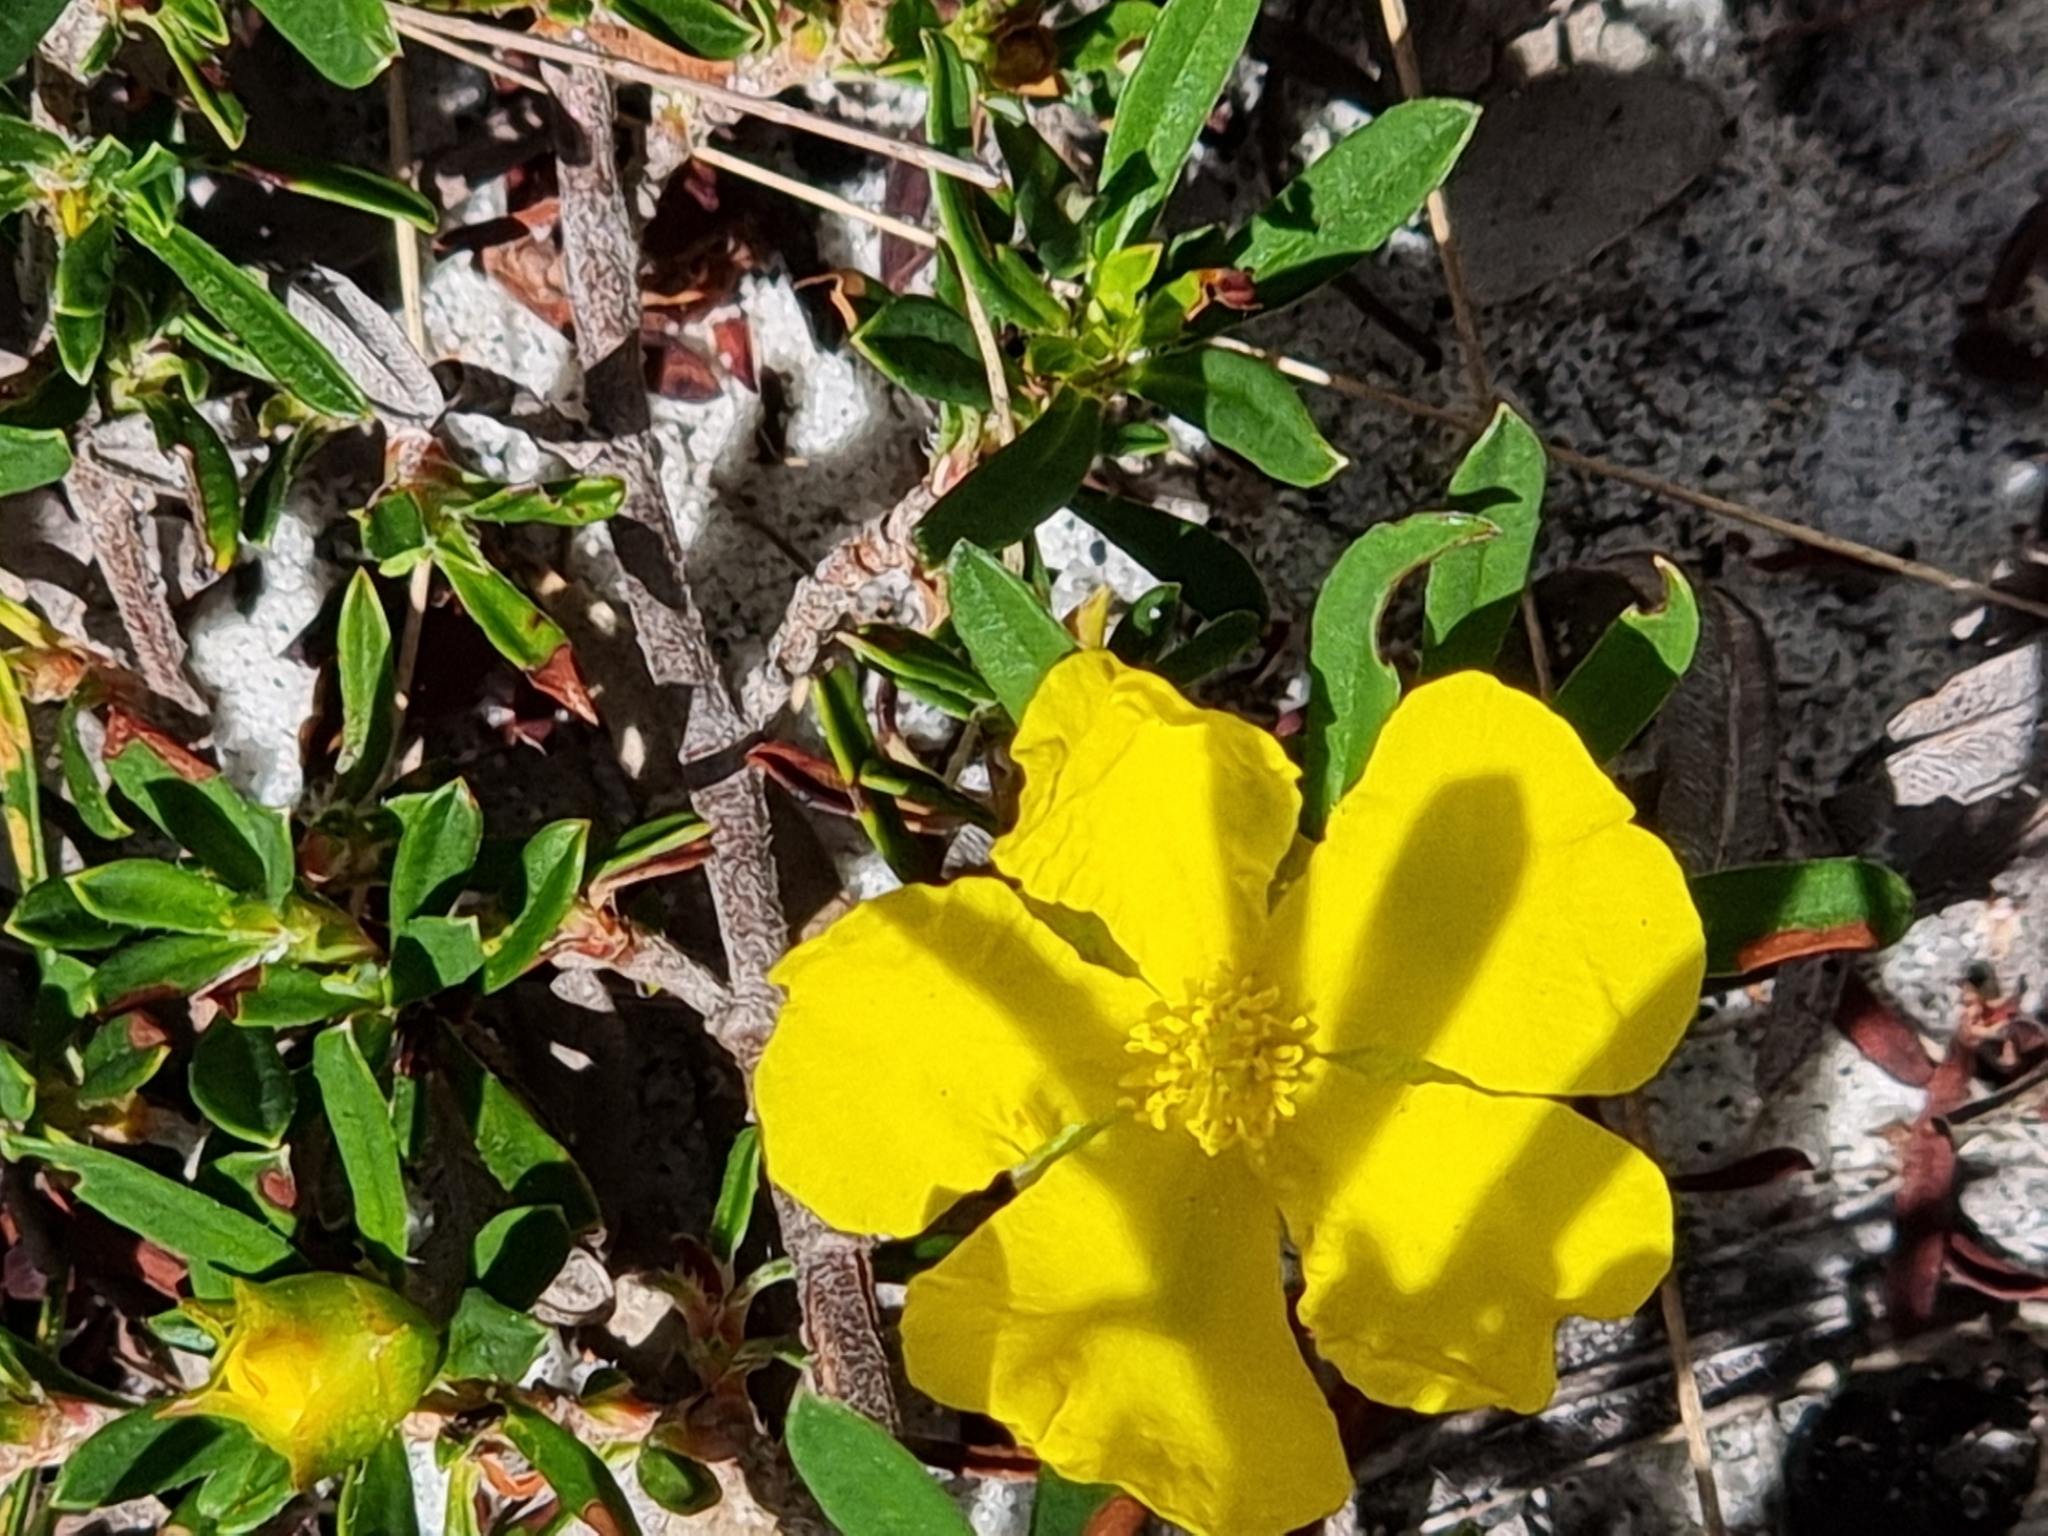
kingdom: Plantae
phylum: Tracheophyta
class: Magnoliopsida
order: Dilleniales
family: Dilleniaceae
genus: Hibbertia
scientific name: Hibbertia linearis
